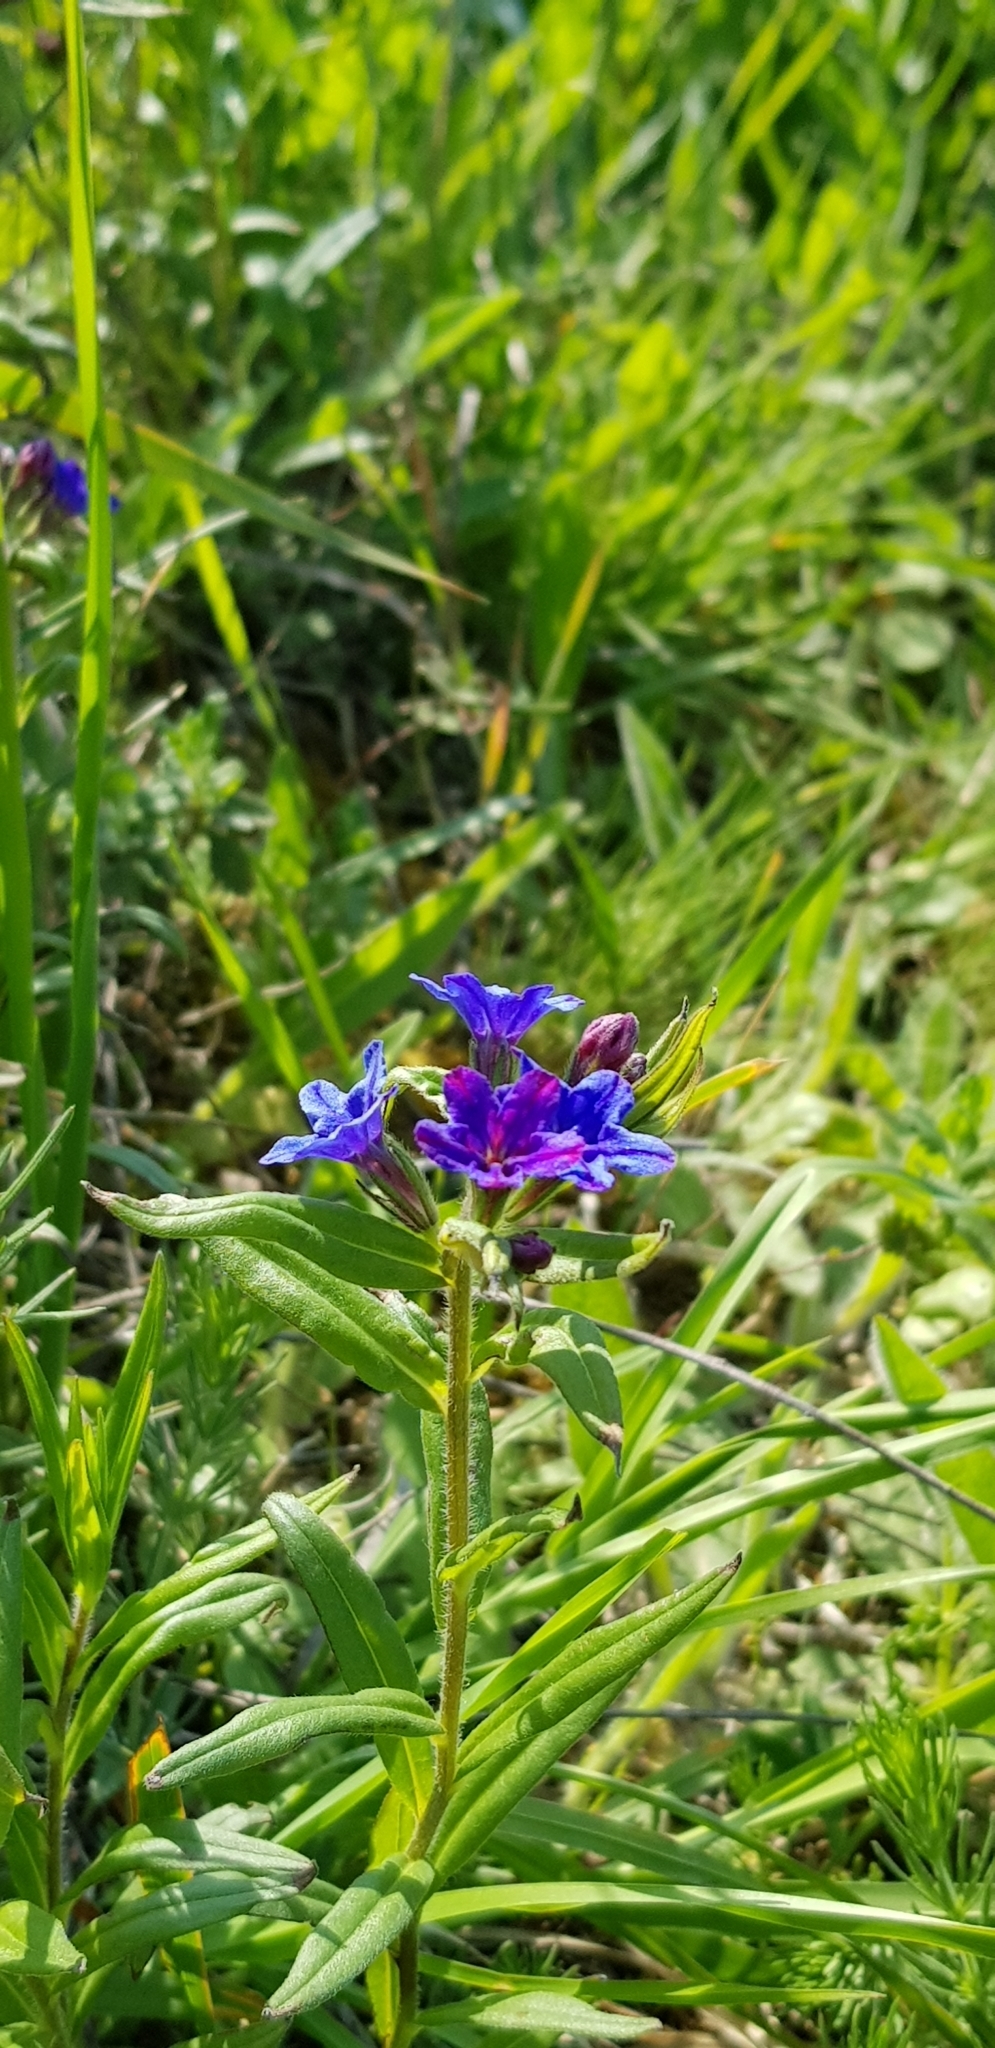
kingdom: Plantae
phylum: Tracheophyta
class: Magnoliopsida
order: Boraginales
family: Boraginaceae
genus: Aegonychon
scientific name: Aegonychon purpurocaeruleum
